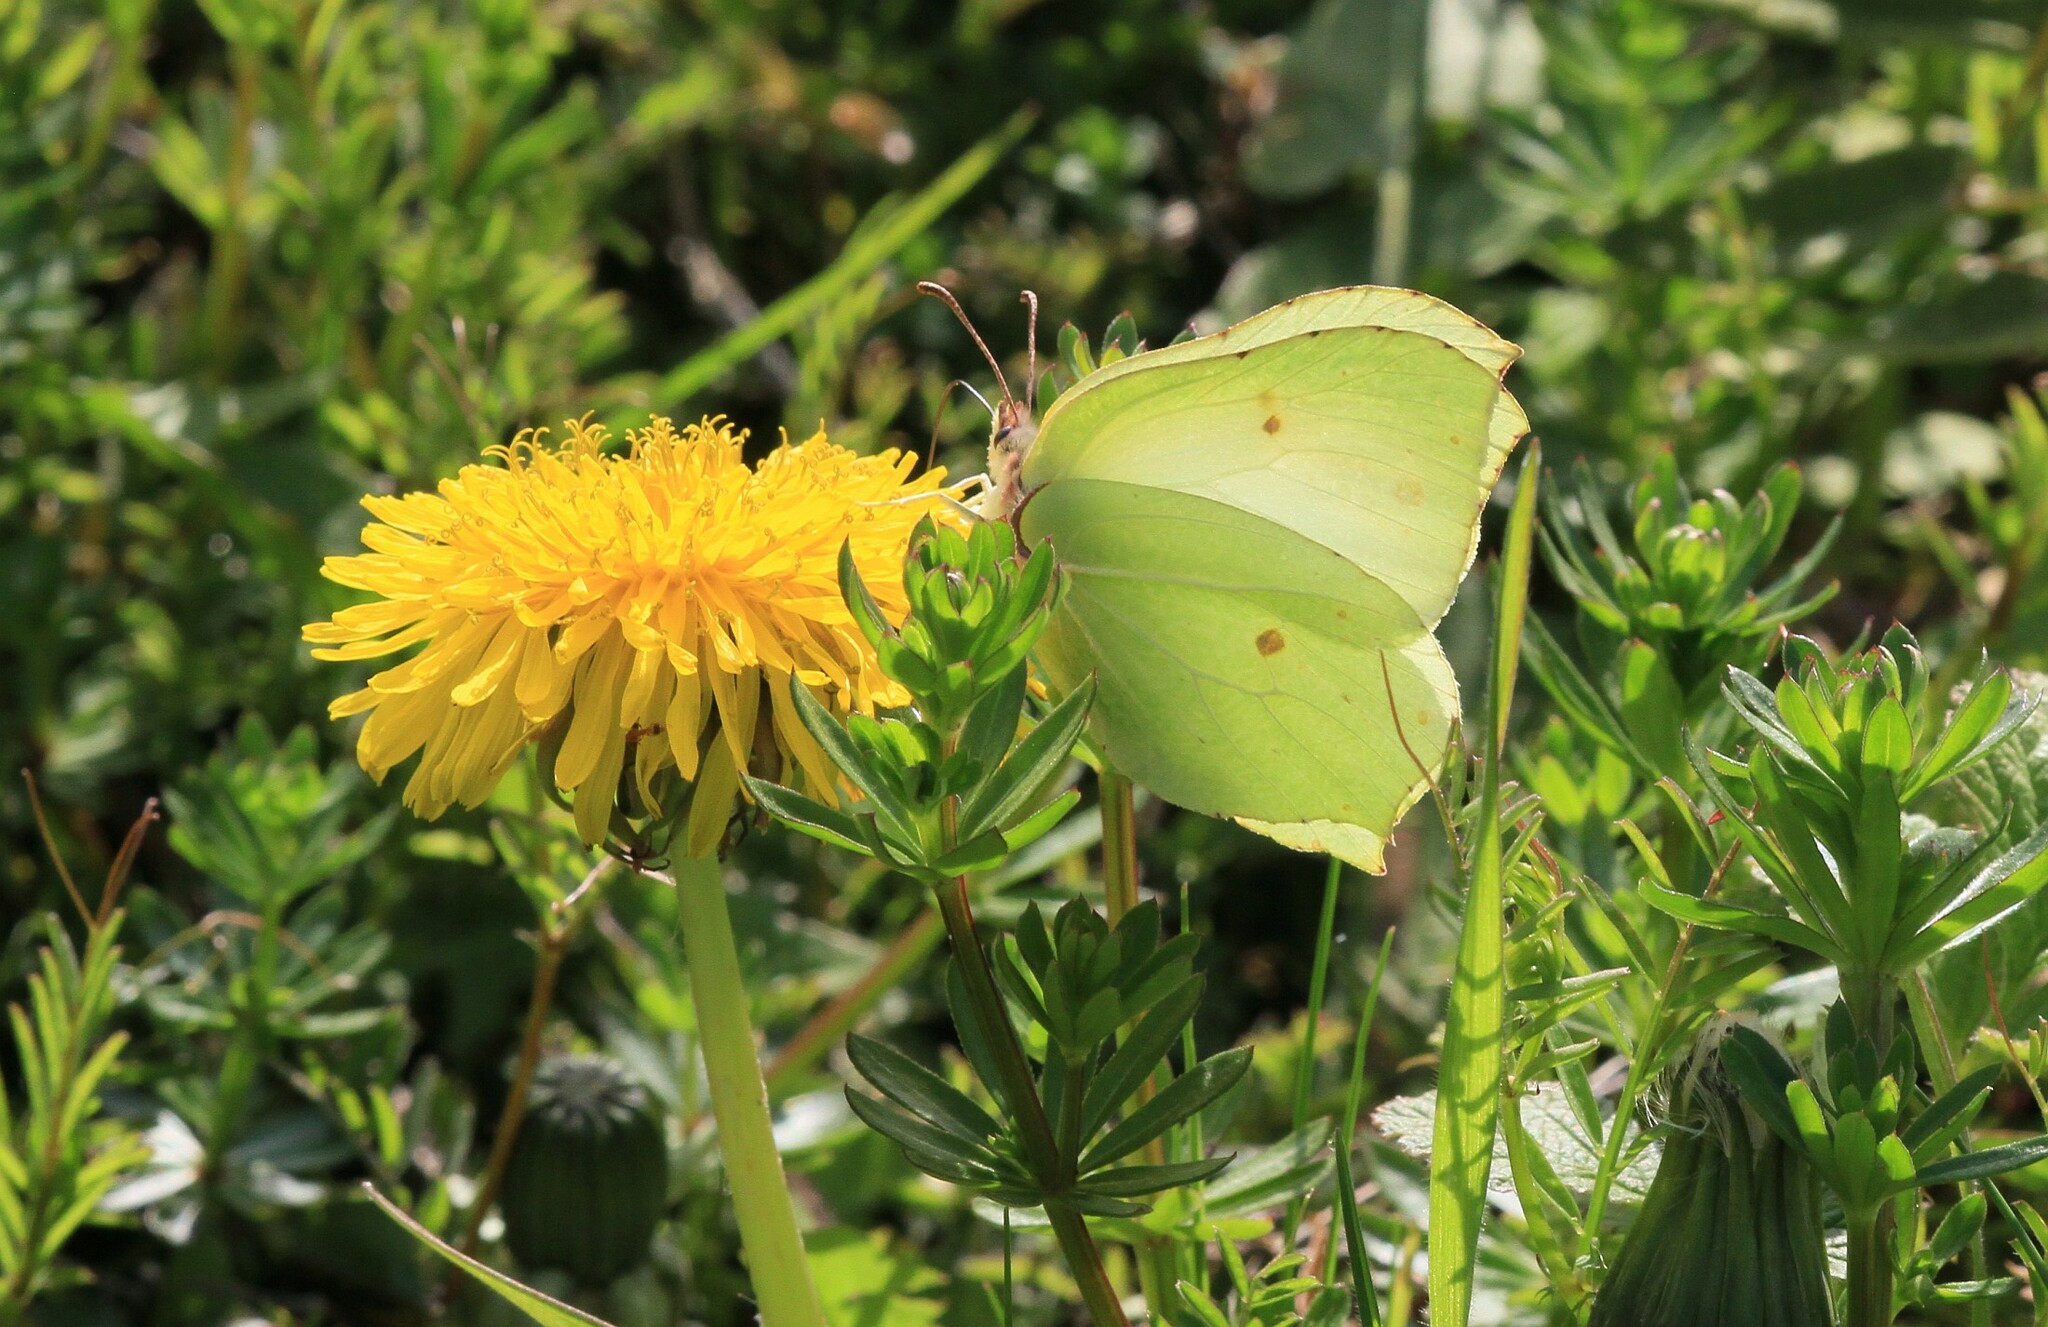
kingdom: Animalia
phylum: Arthropoda
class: Insecta
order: Lepidoptera
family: Pieridae
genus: Gonepteryx
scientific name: Gonepteryx rhamni
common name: Brimstone
